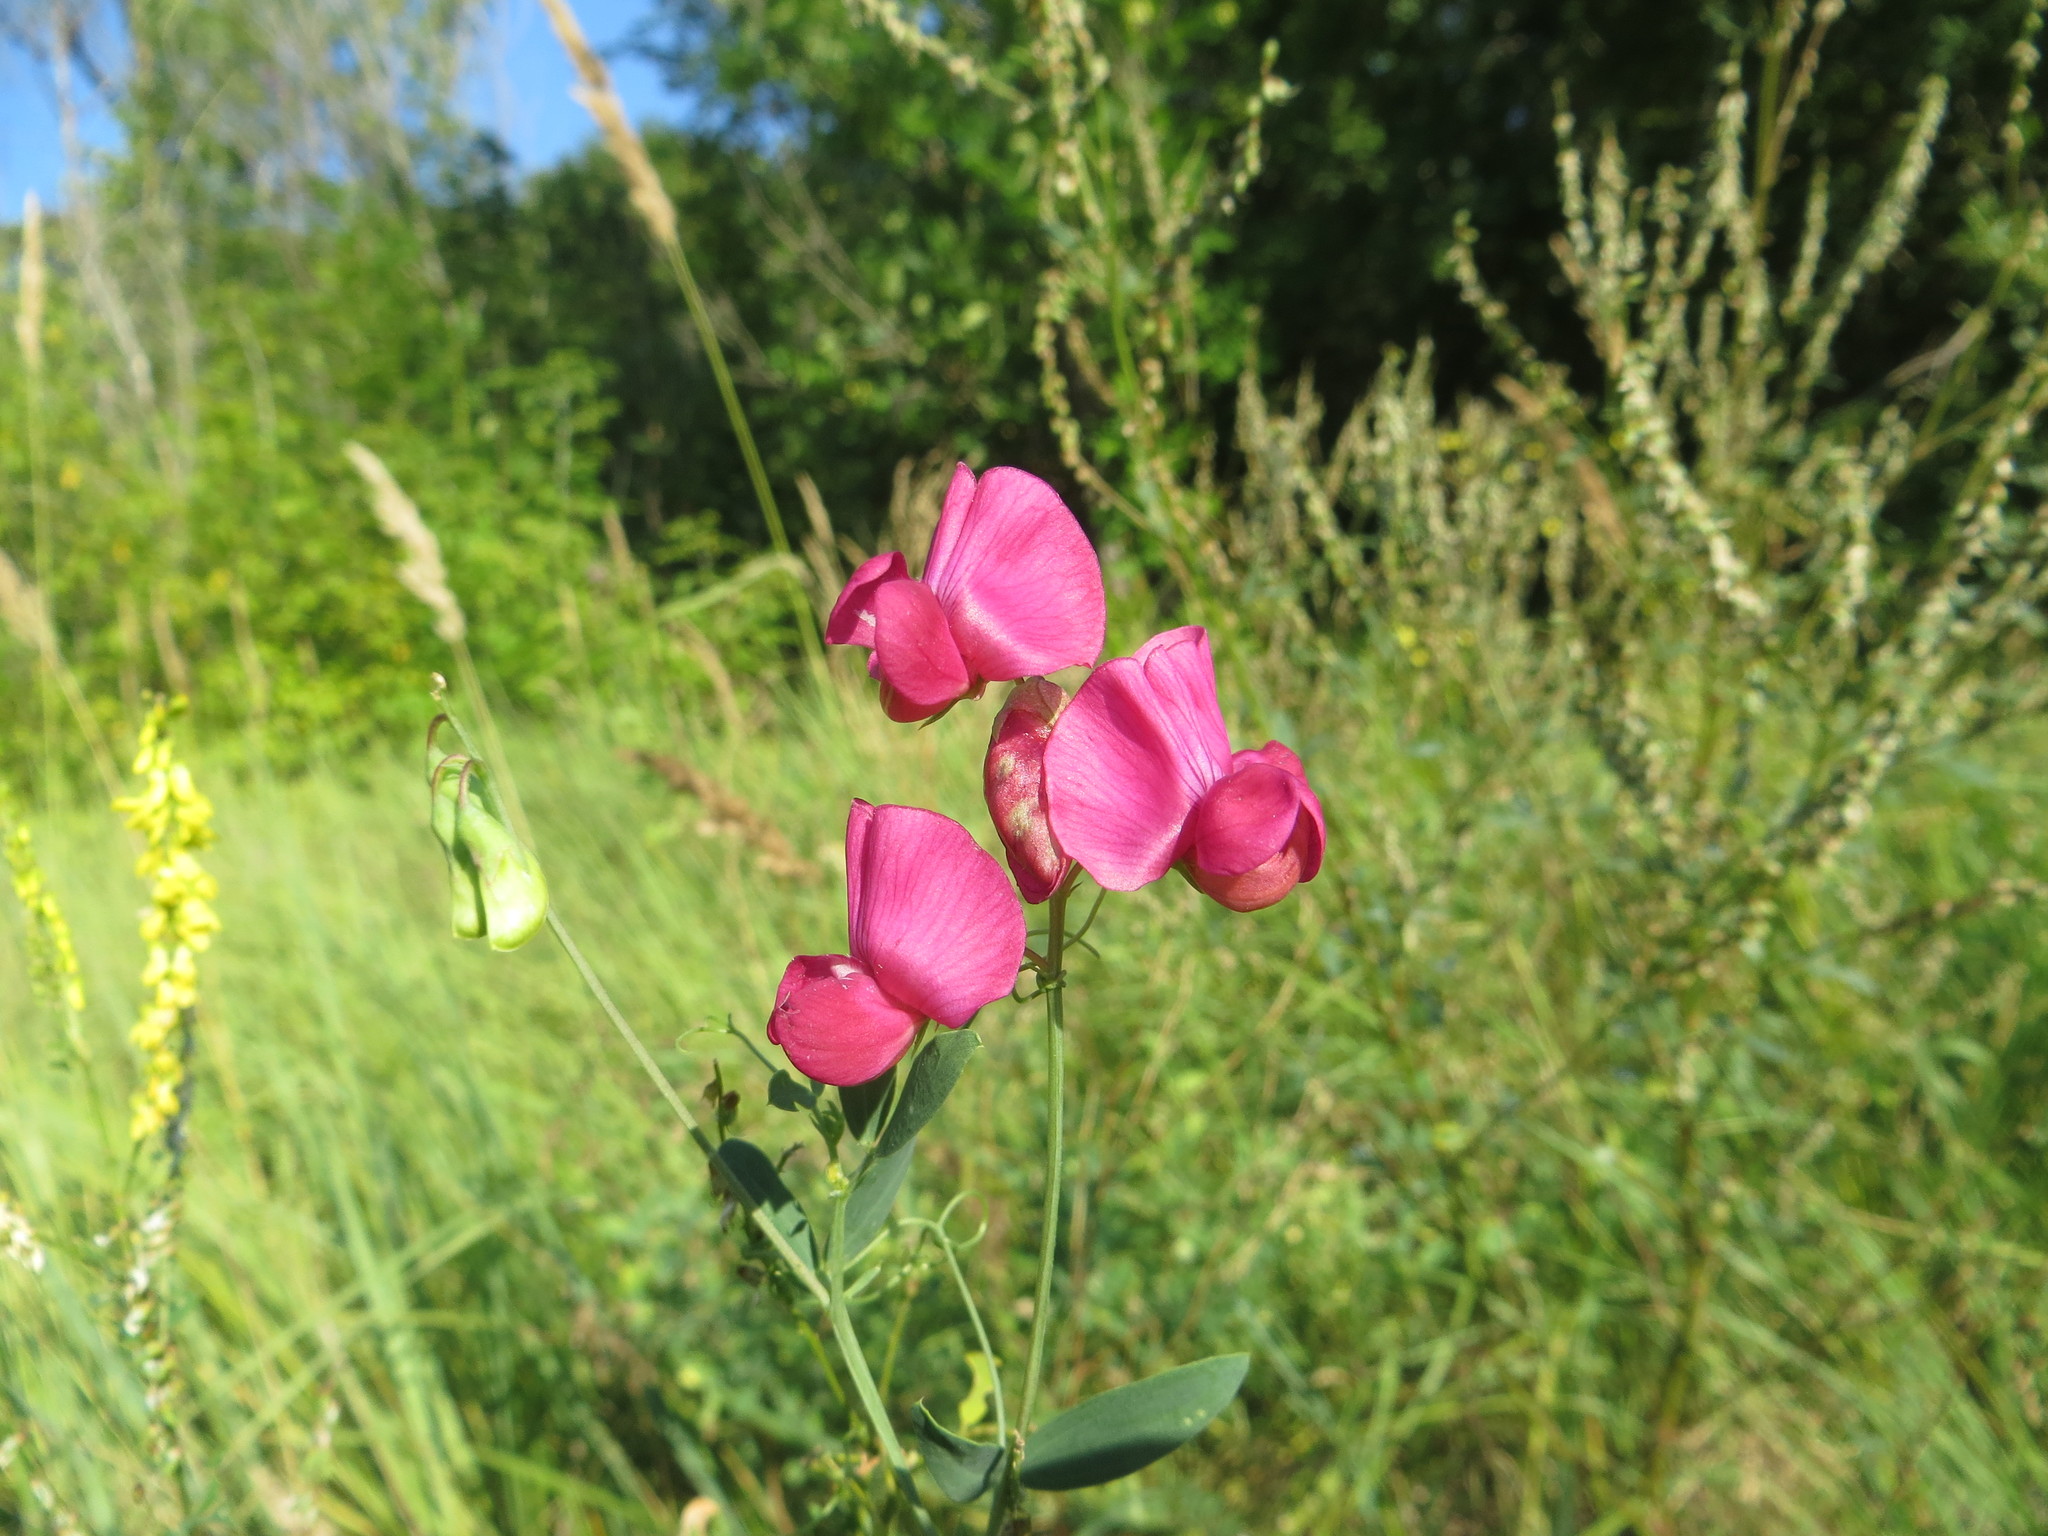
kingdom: Plantae
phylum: Tracheophyta
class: Magnoliopsida
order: Fabales
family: Fabaceae
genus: Lathyrus
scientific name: Lathyrus tuberosus
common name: Tuberous pea
